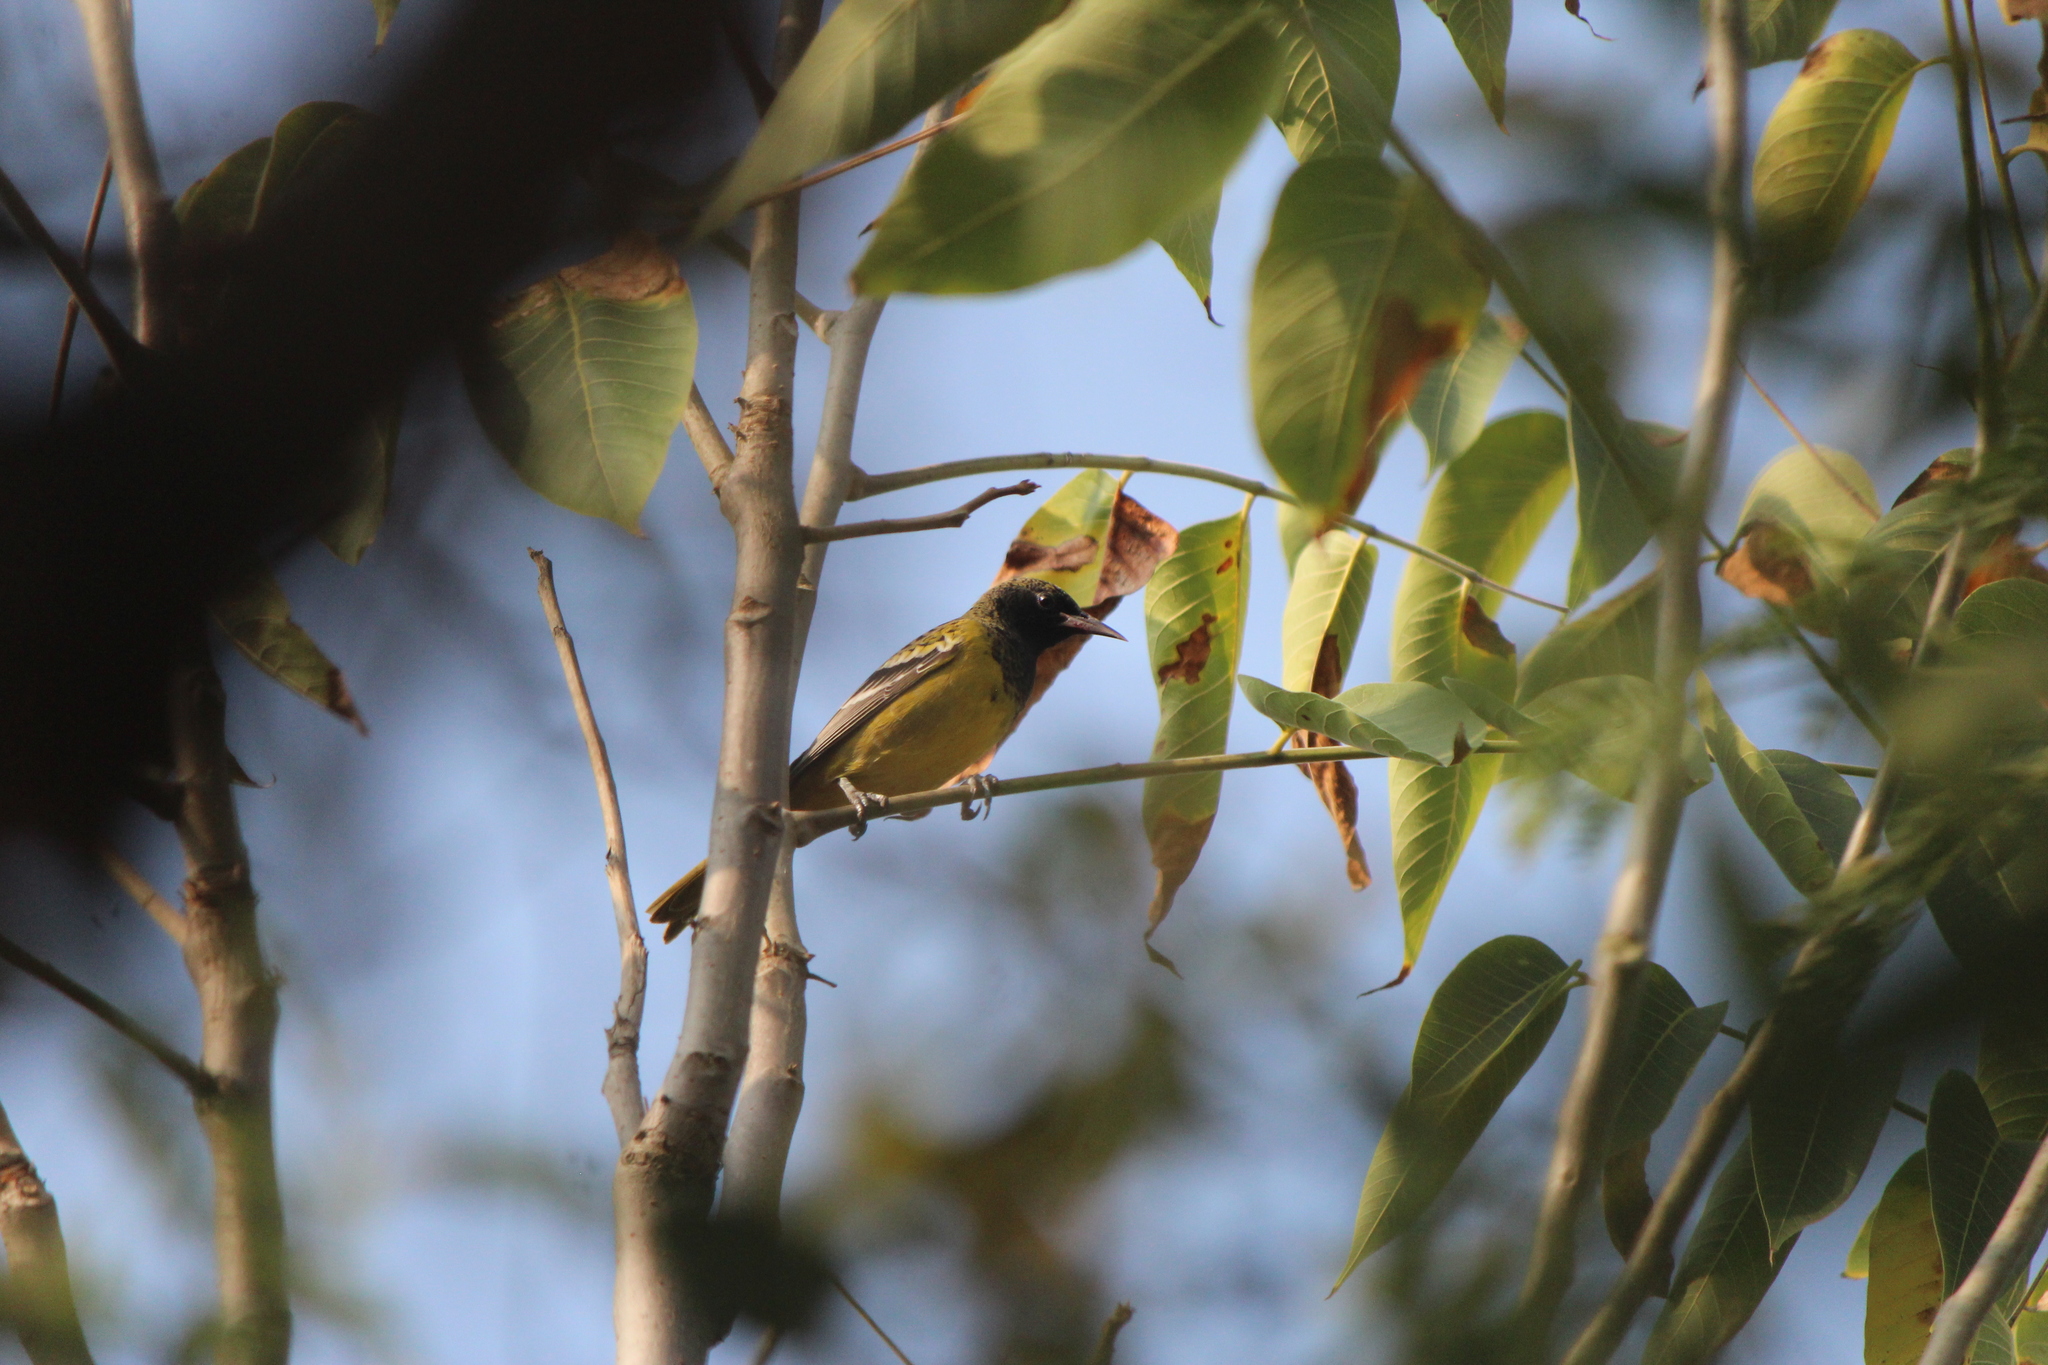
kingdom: Animalia
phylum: Chordata
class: Aves
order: Passeriformes
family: Icteridae
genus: Icterus
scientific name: Icterus parisorum
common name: Scott's oriole
